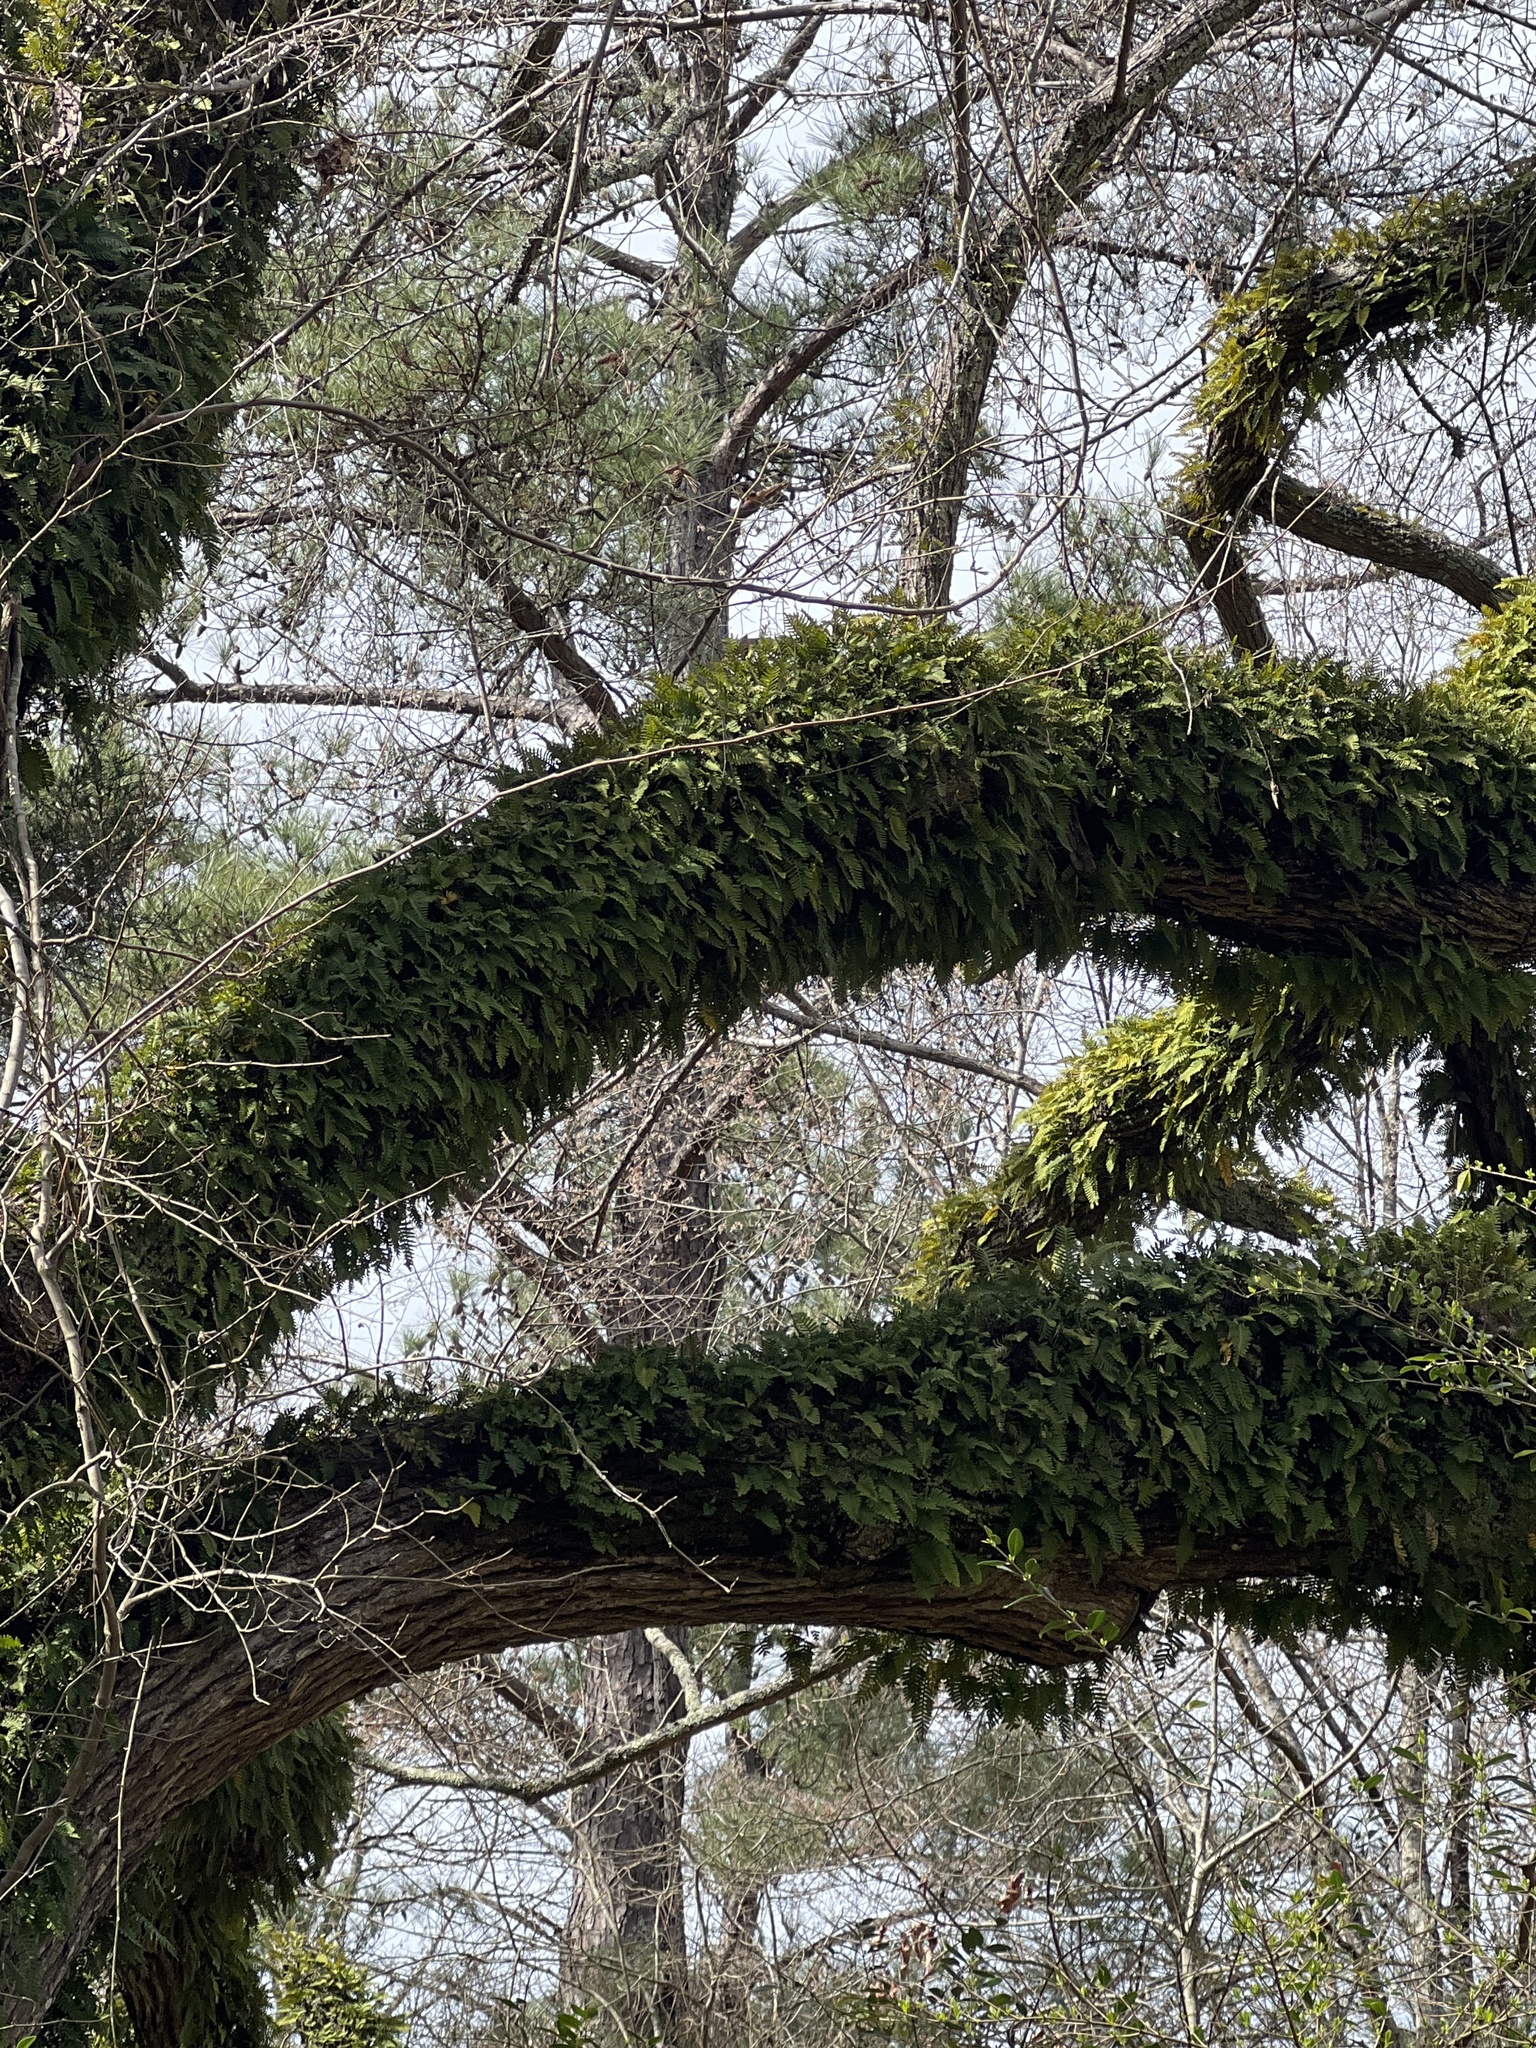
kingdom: Plantae
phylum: Tracheophyta
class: Polypodiopsida
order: Polypodiales
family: Polypodiaceae
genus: Pleopeltis
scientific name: Pleopeltis michauxiana
